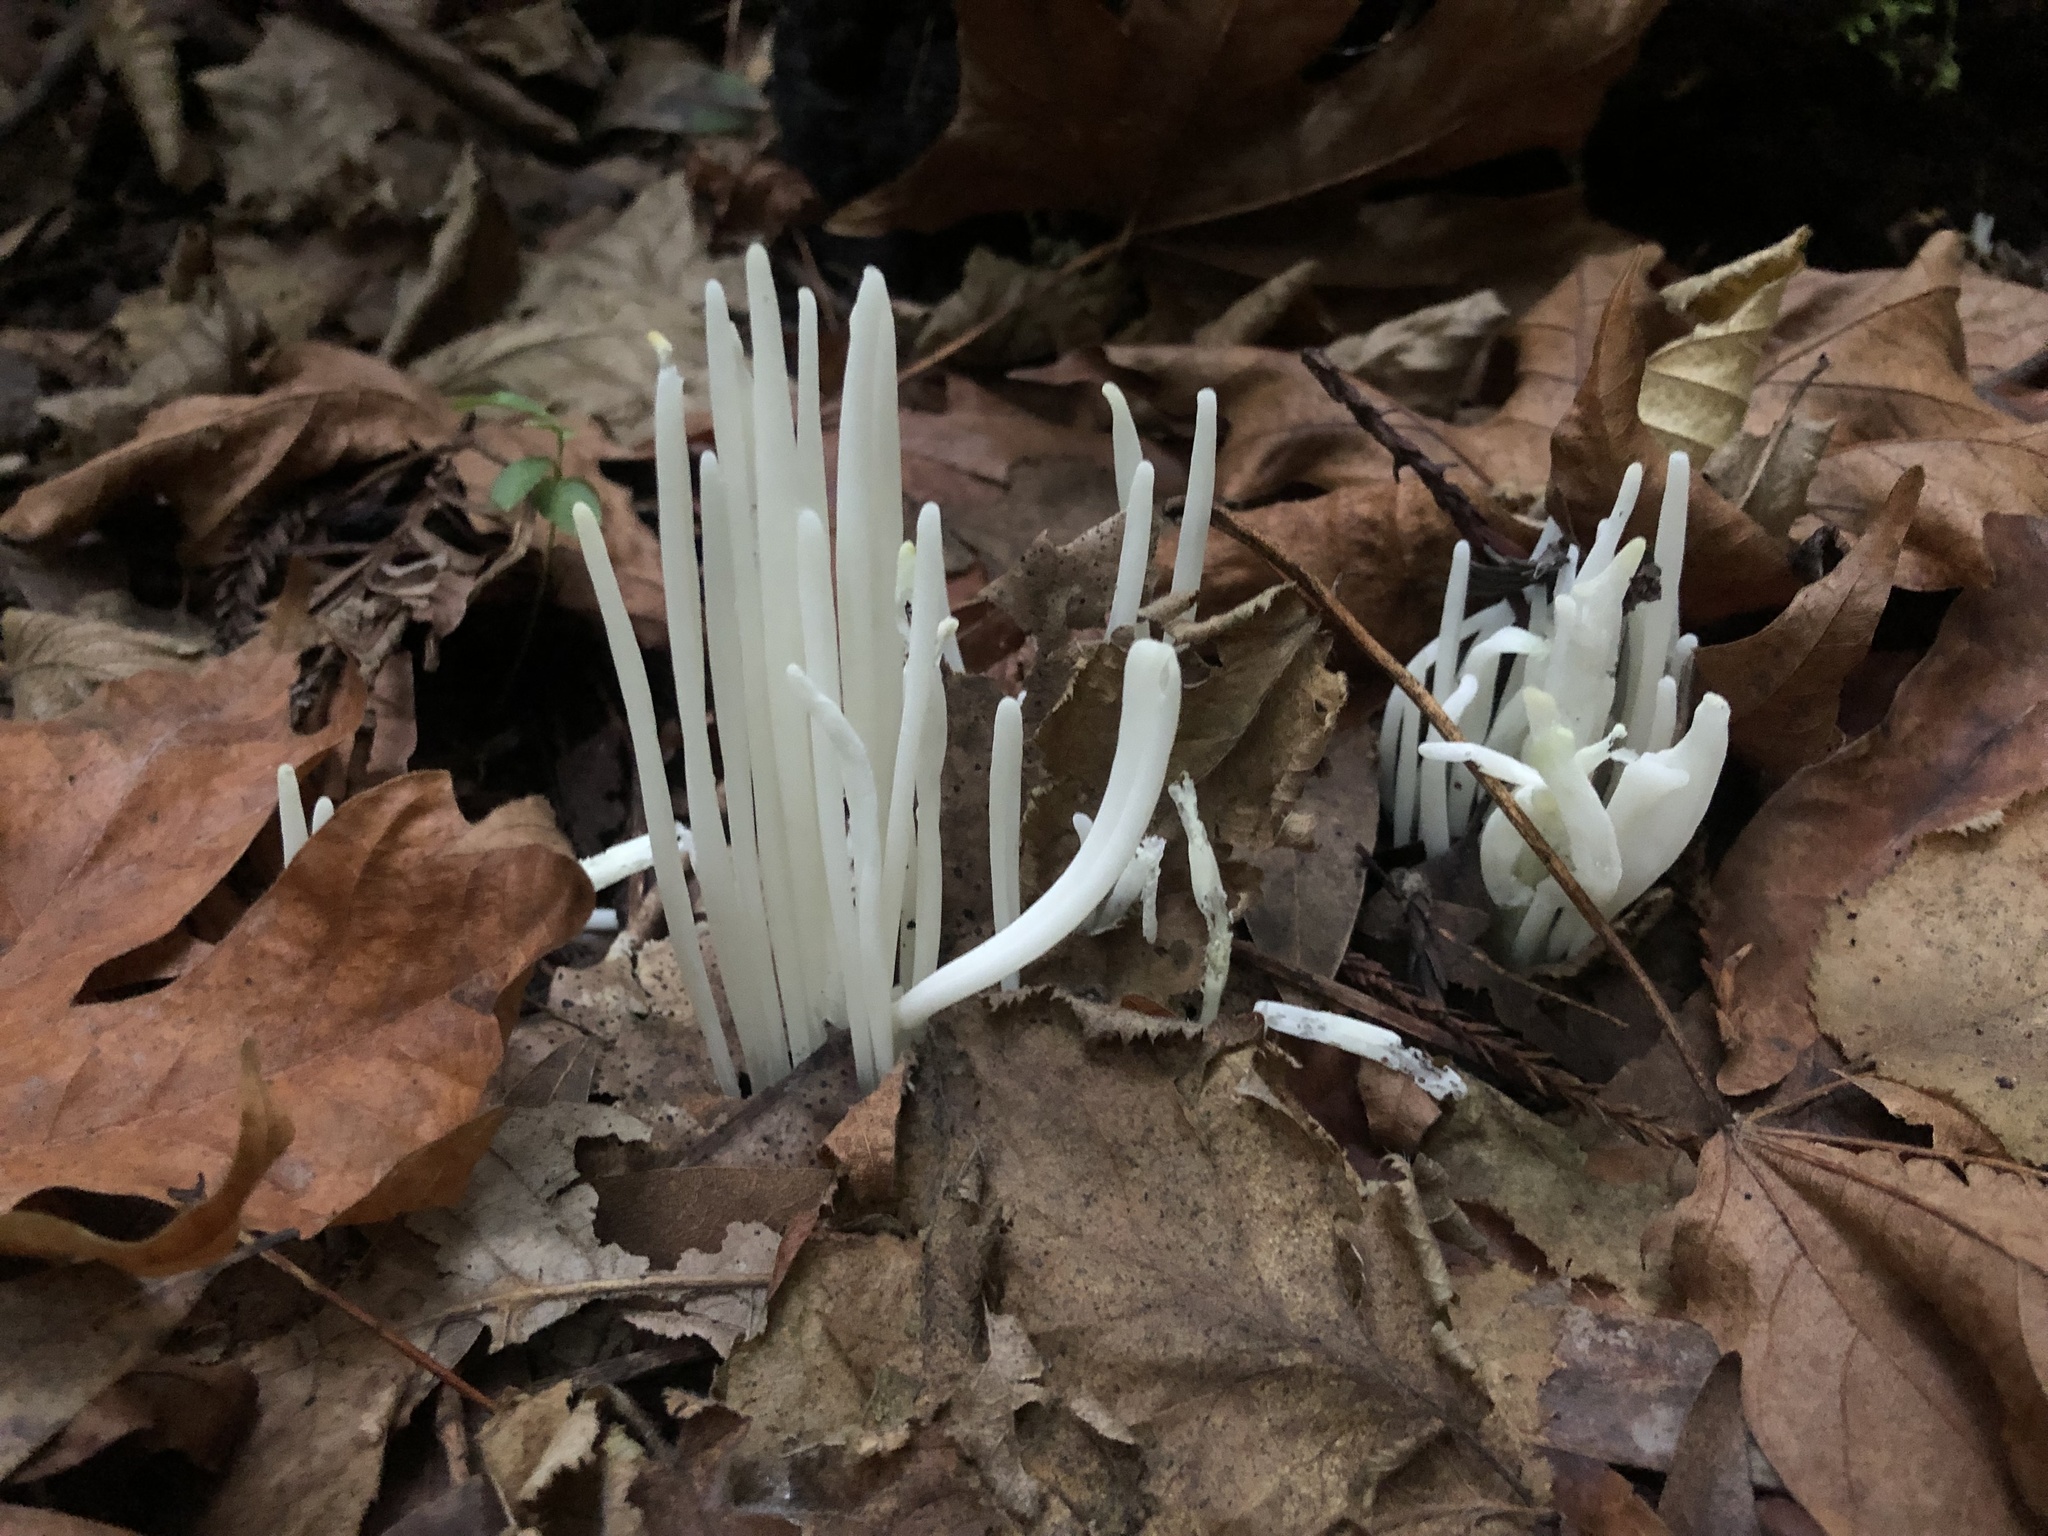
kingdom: Fungi
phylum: Basidiomycota
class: Agaricomycetes
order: Agaricales
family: Clavariaceae
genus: Clavaria
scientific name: Clavaria fragilis
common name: White spindles
